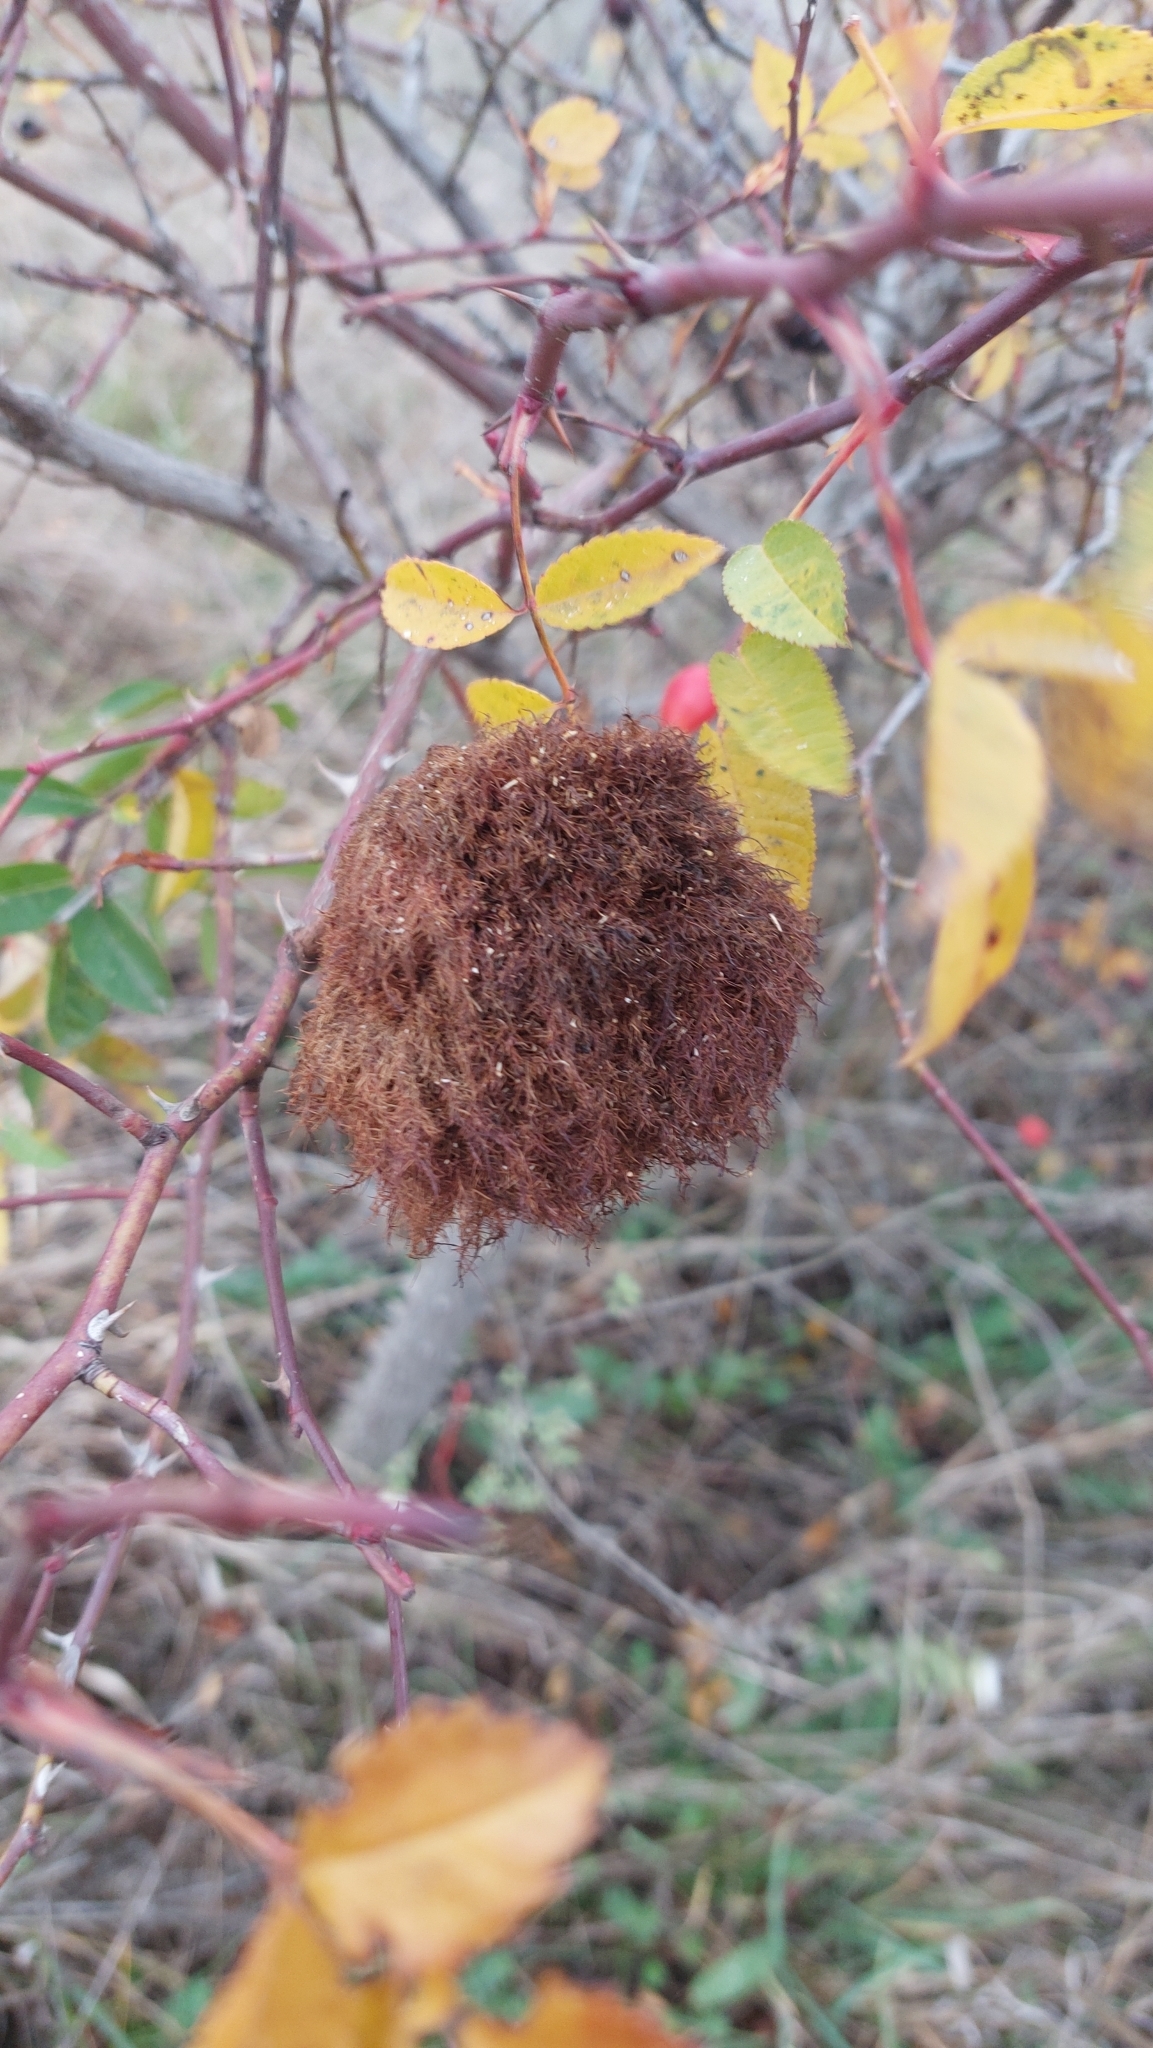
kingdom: Animalia
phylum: Arthropoda
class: Insecta
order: Hymenoptera
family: Cynipidae
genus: Diplolepis
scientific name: Diplolepis rosae
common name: Bedeguar gall
